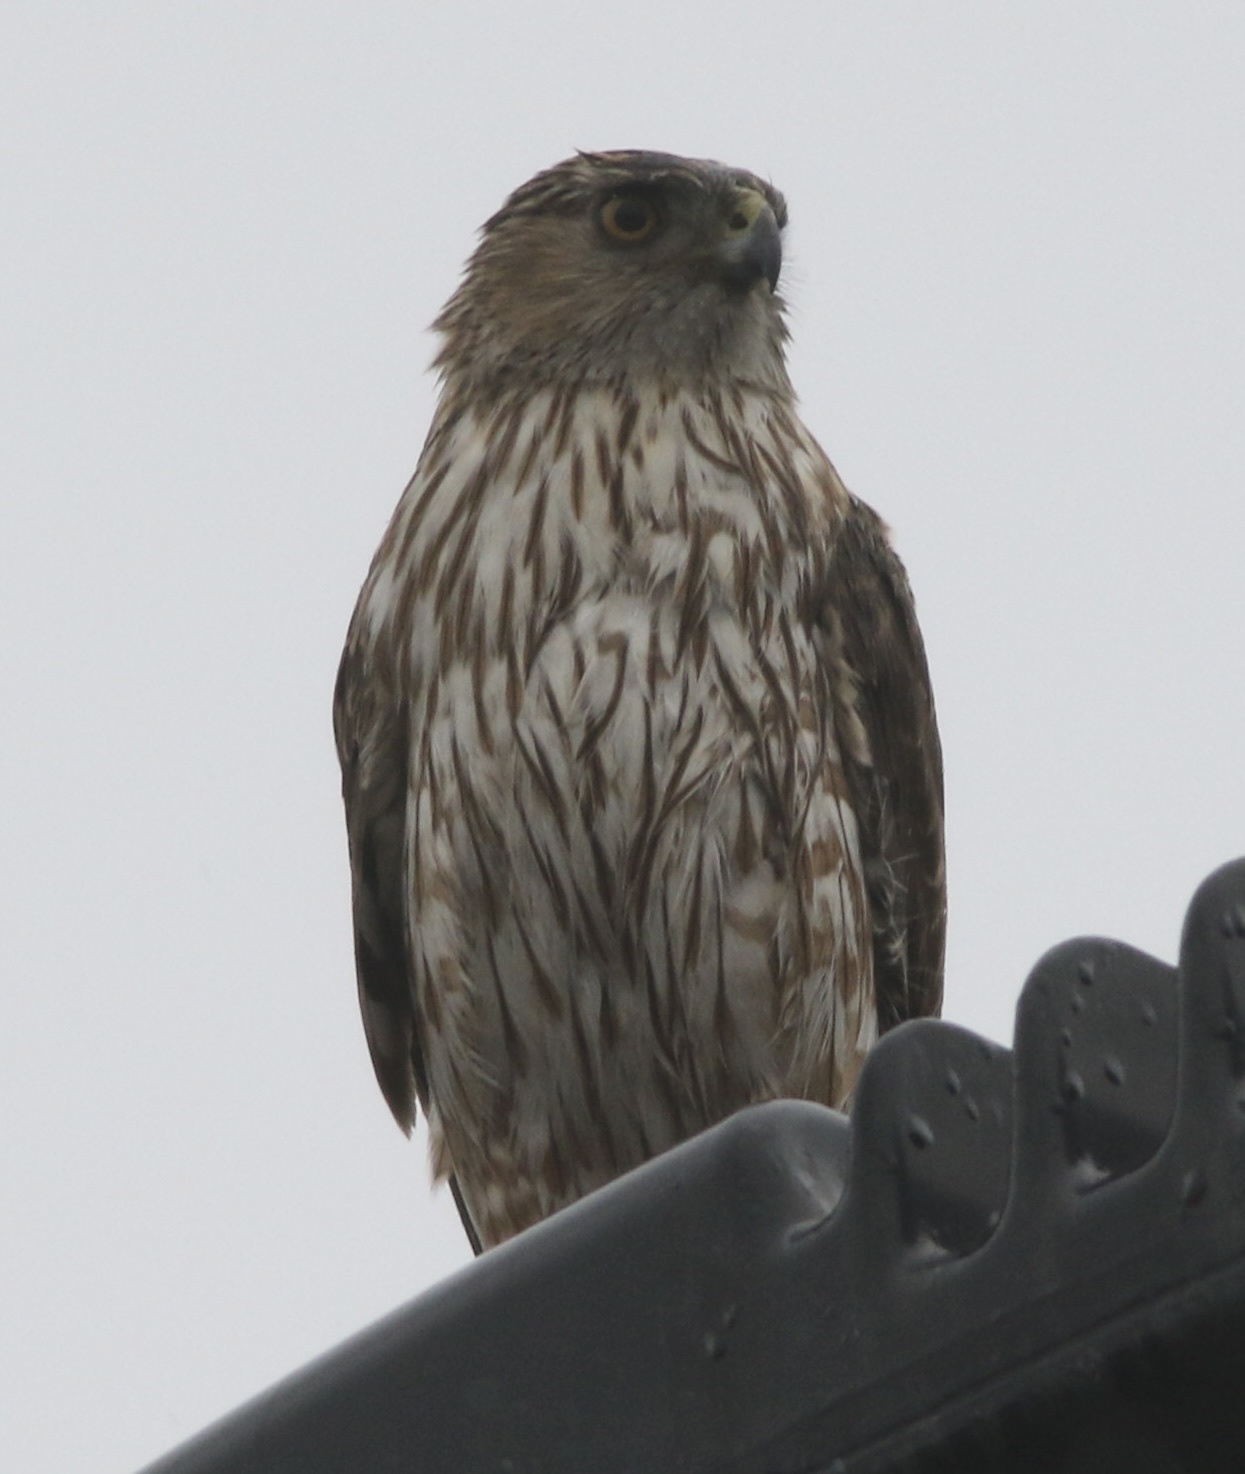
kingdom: Animalia
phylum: Chordata
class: Aves
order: Accipitriformes
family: Accipitridae
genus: Accipiter
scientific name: Accipiter cooperii
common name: Cooper's hawk
